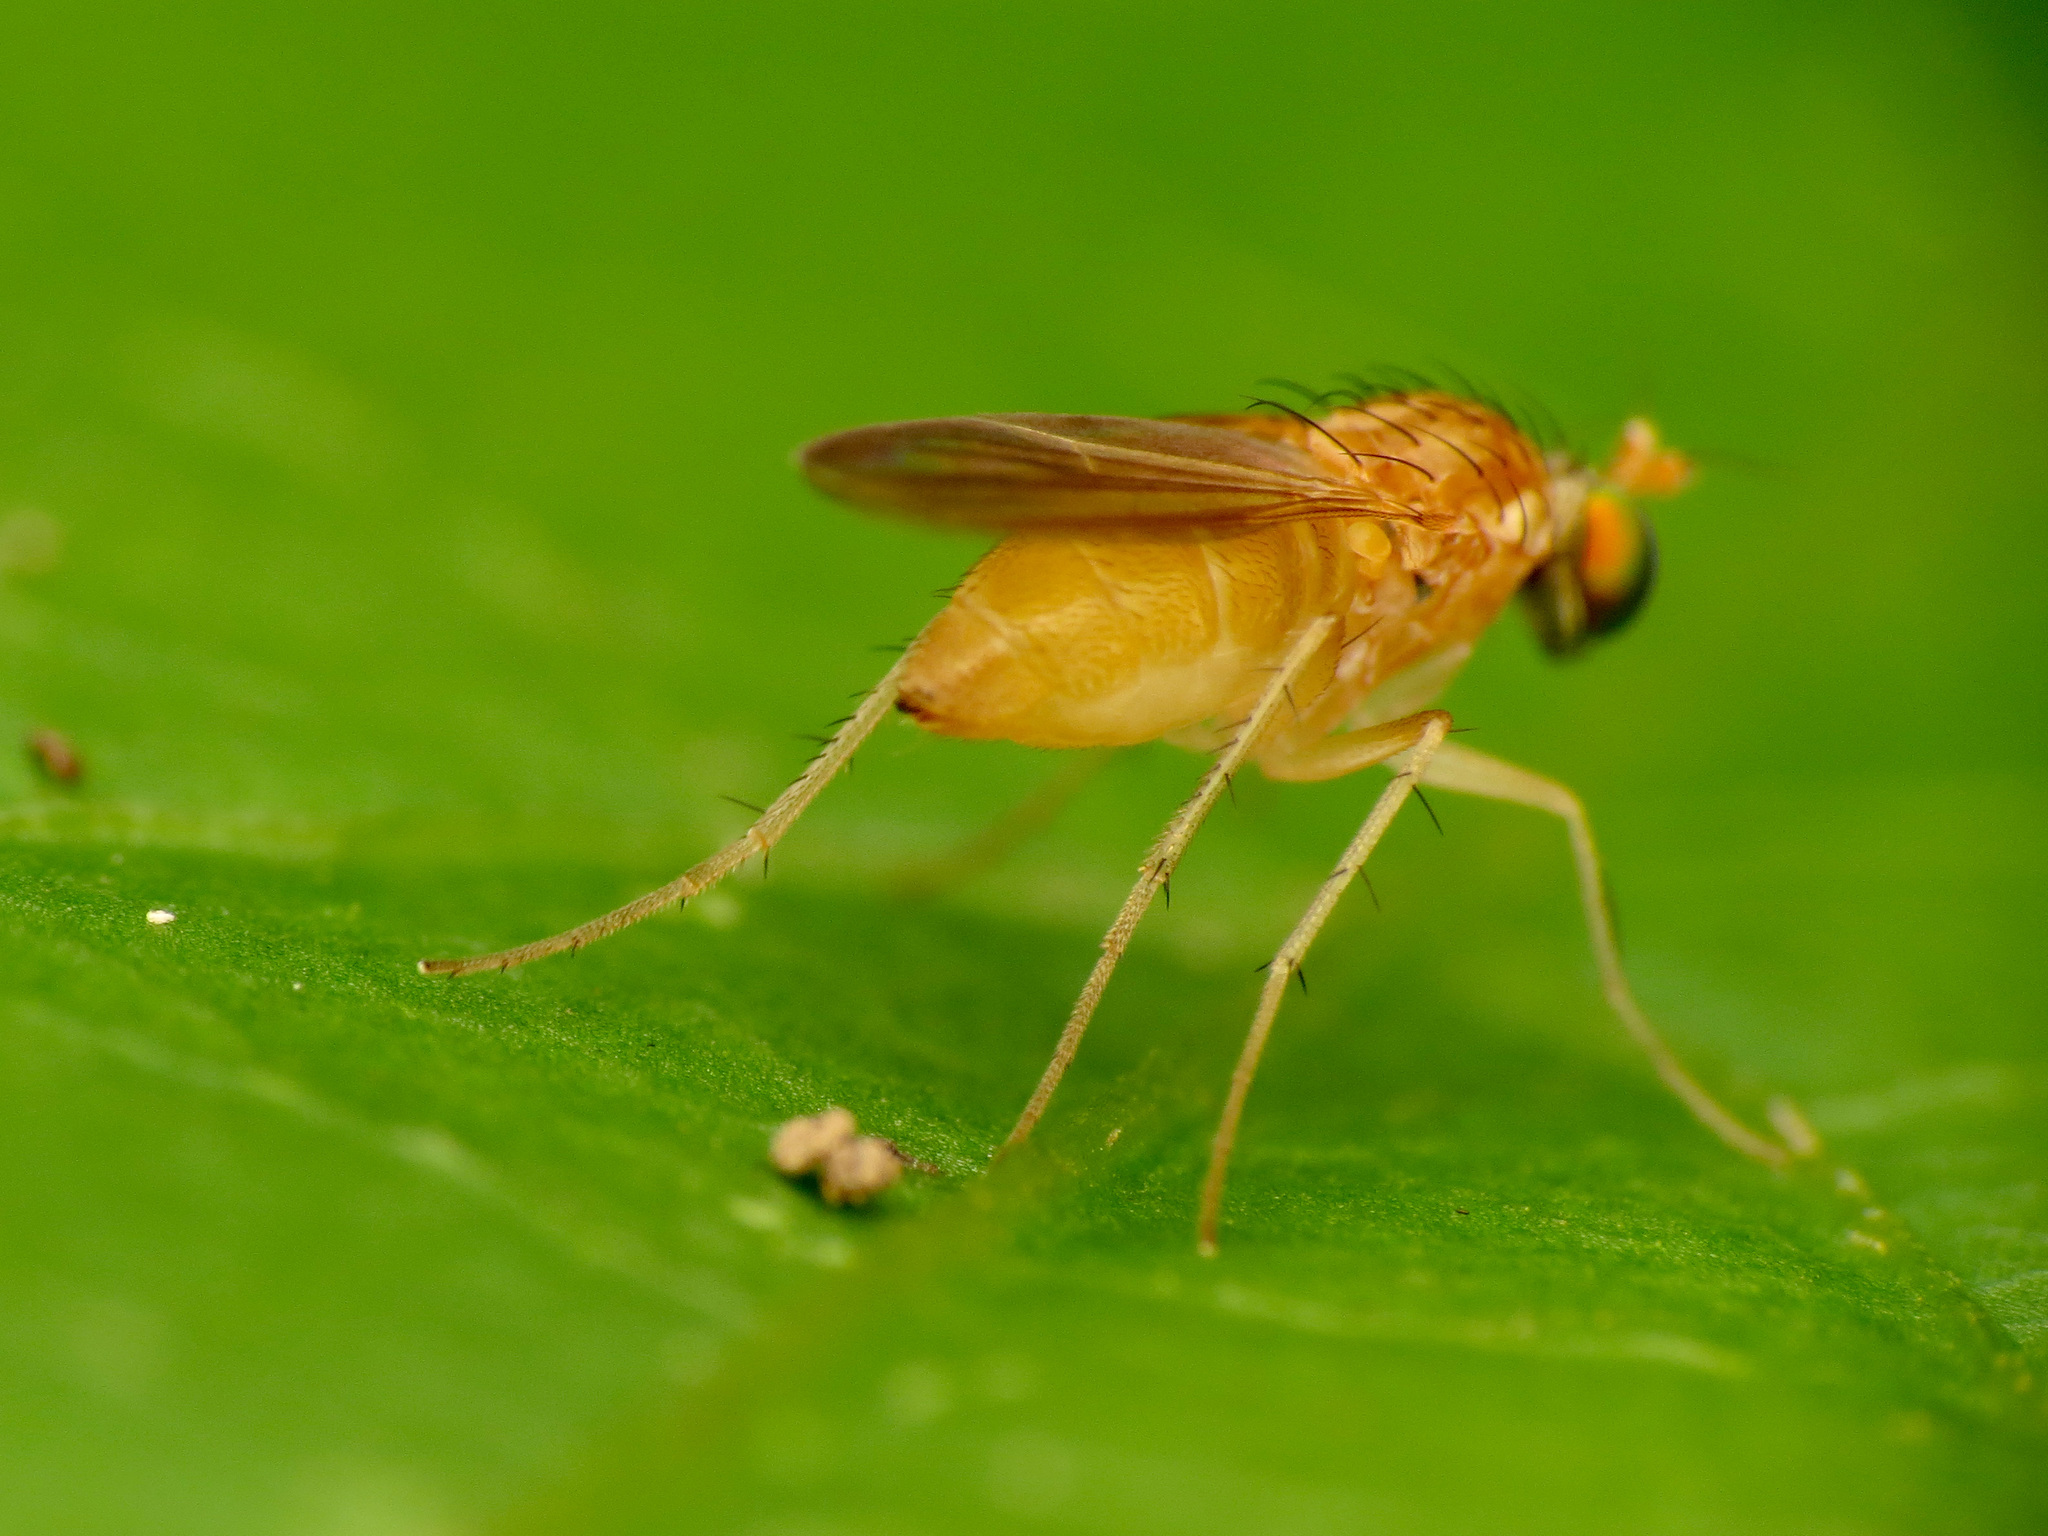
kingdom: Animalia
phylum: Arthropoda
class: Insecta
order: Diptera
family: Dolichopodidae
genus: Gymnopternus
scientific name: Gymnopternus flavus
